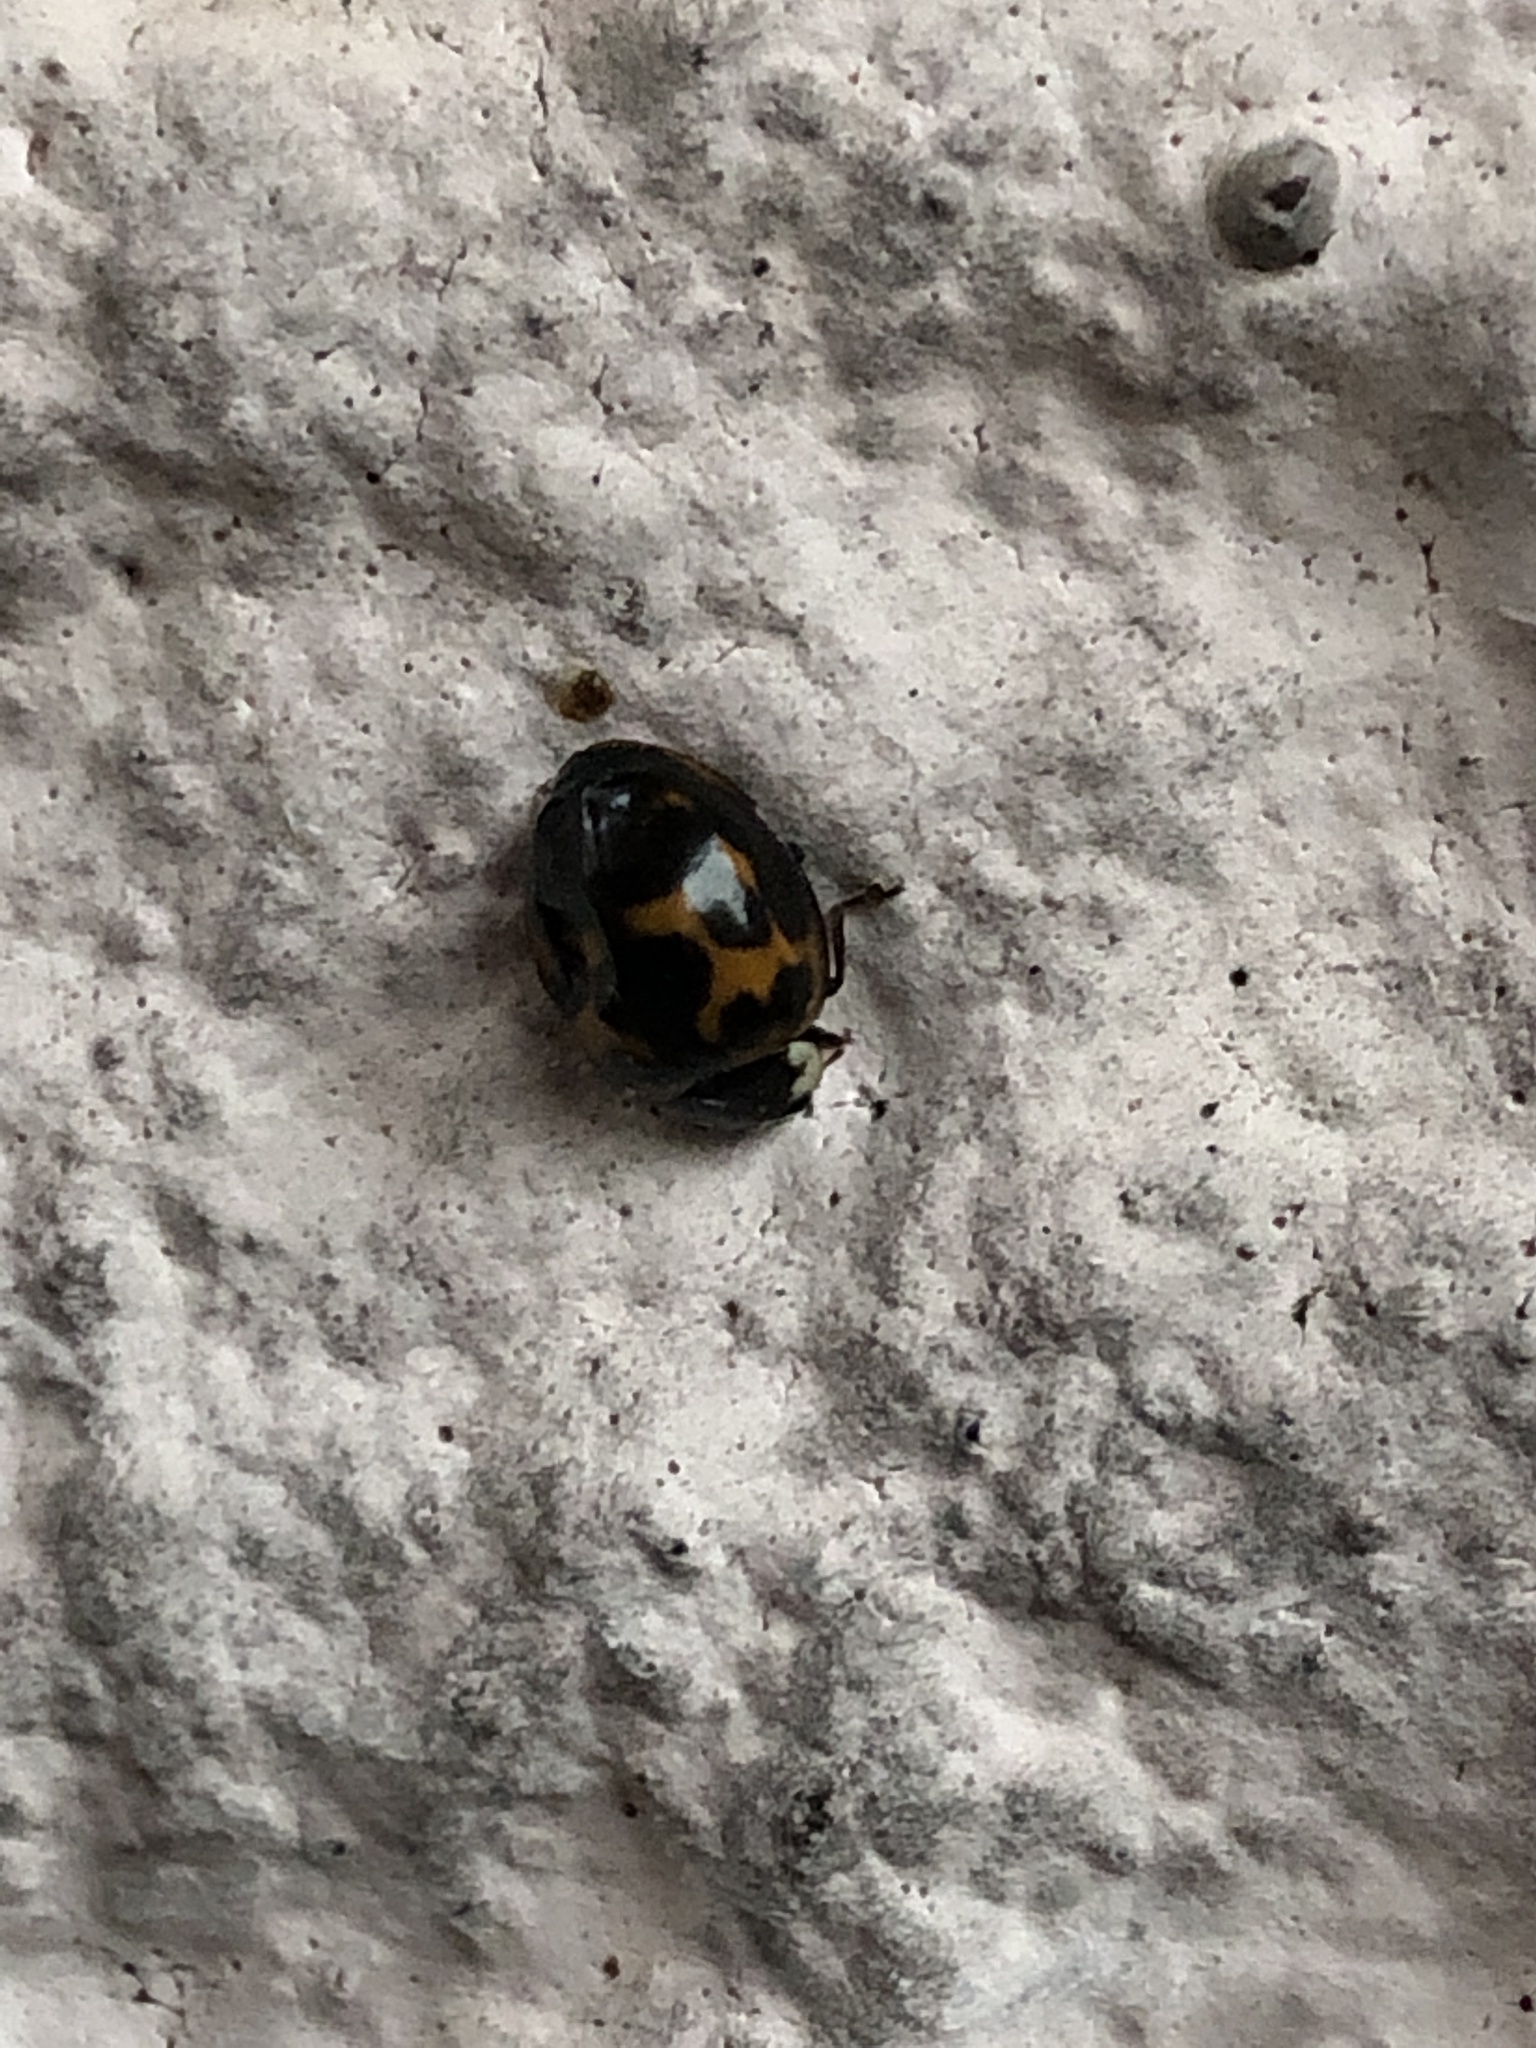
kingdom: Animalia
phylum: Arthropoda
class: Insecta
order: Coleoptera
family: Coccinellidae
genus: Harmonia
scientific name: Harmonia axyridis
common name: Harlequin ladybird
